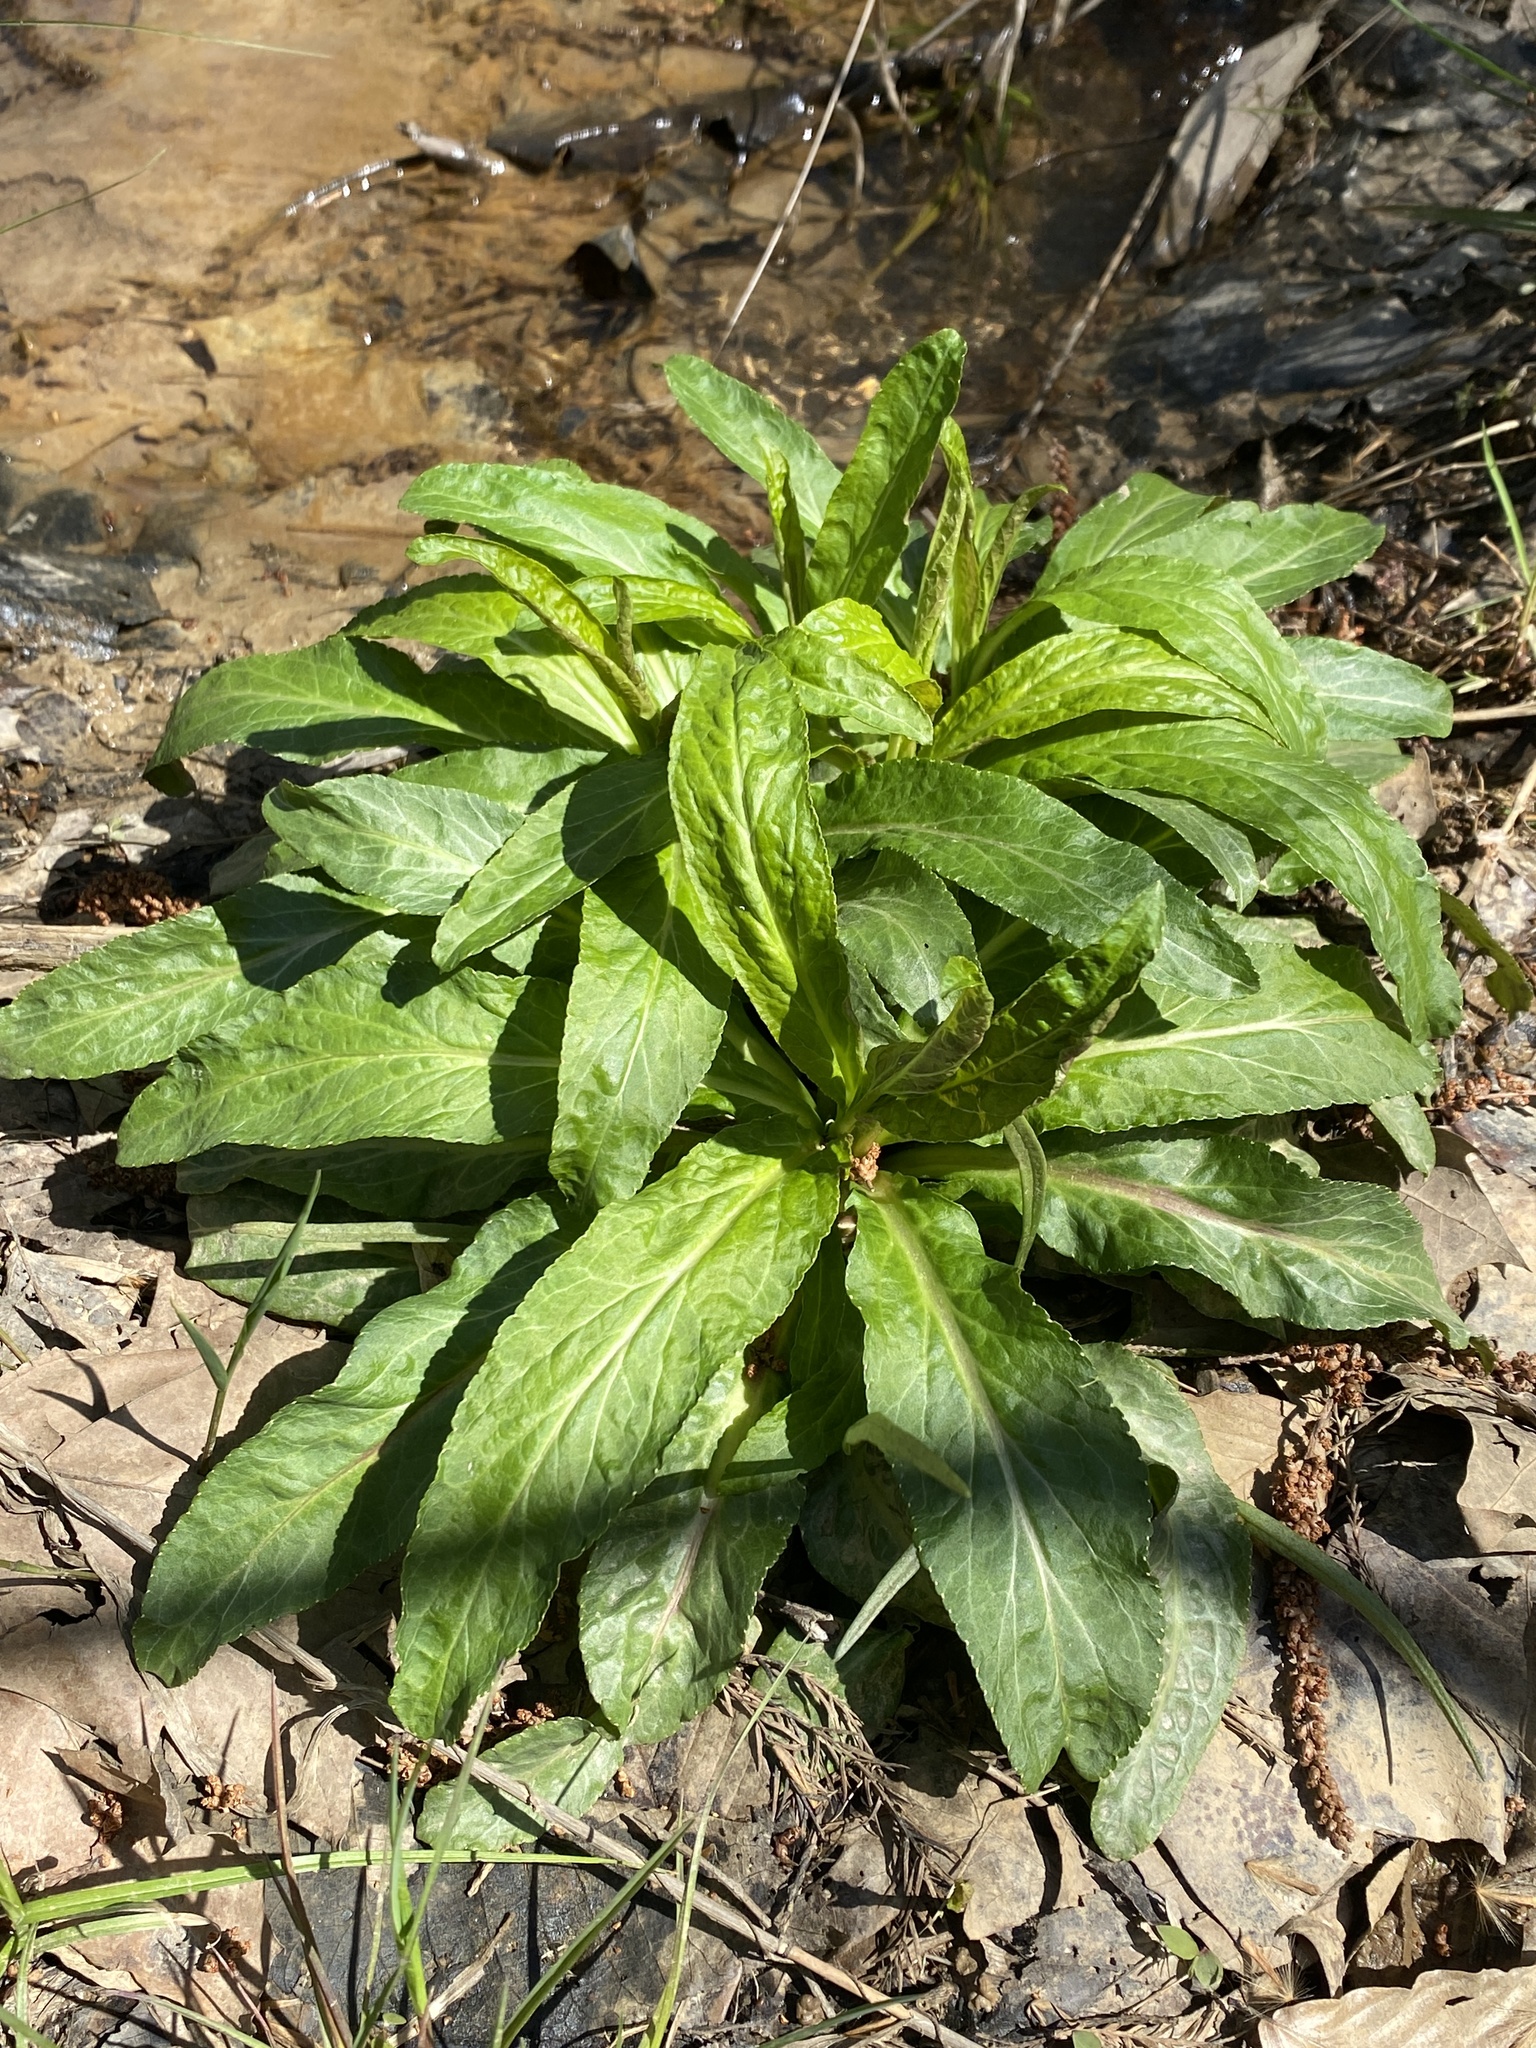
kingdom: Plantae
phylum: Tracheophyta
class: Magnoliopsida
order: Asterales
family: Campanulaceae
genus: Lobelia
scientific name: Lobelia cardinalis
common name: Cardinal flower
